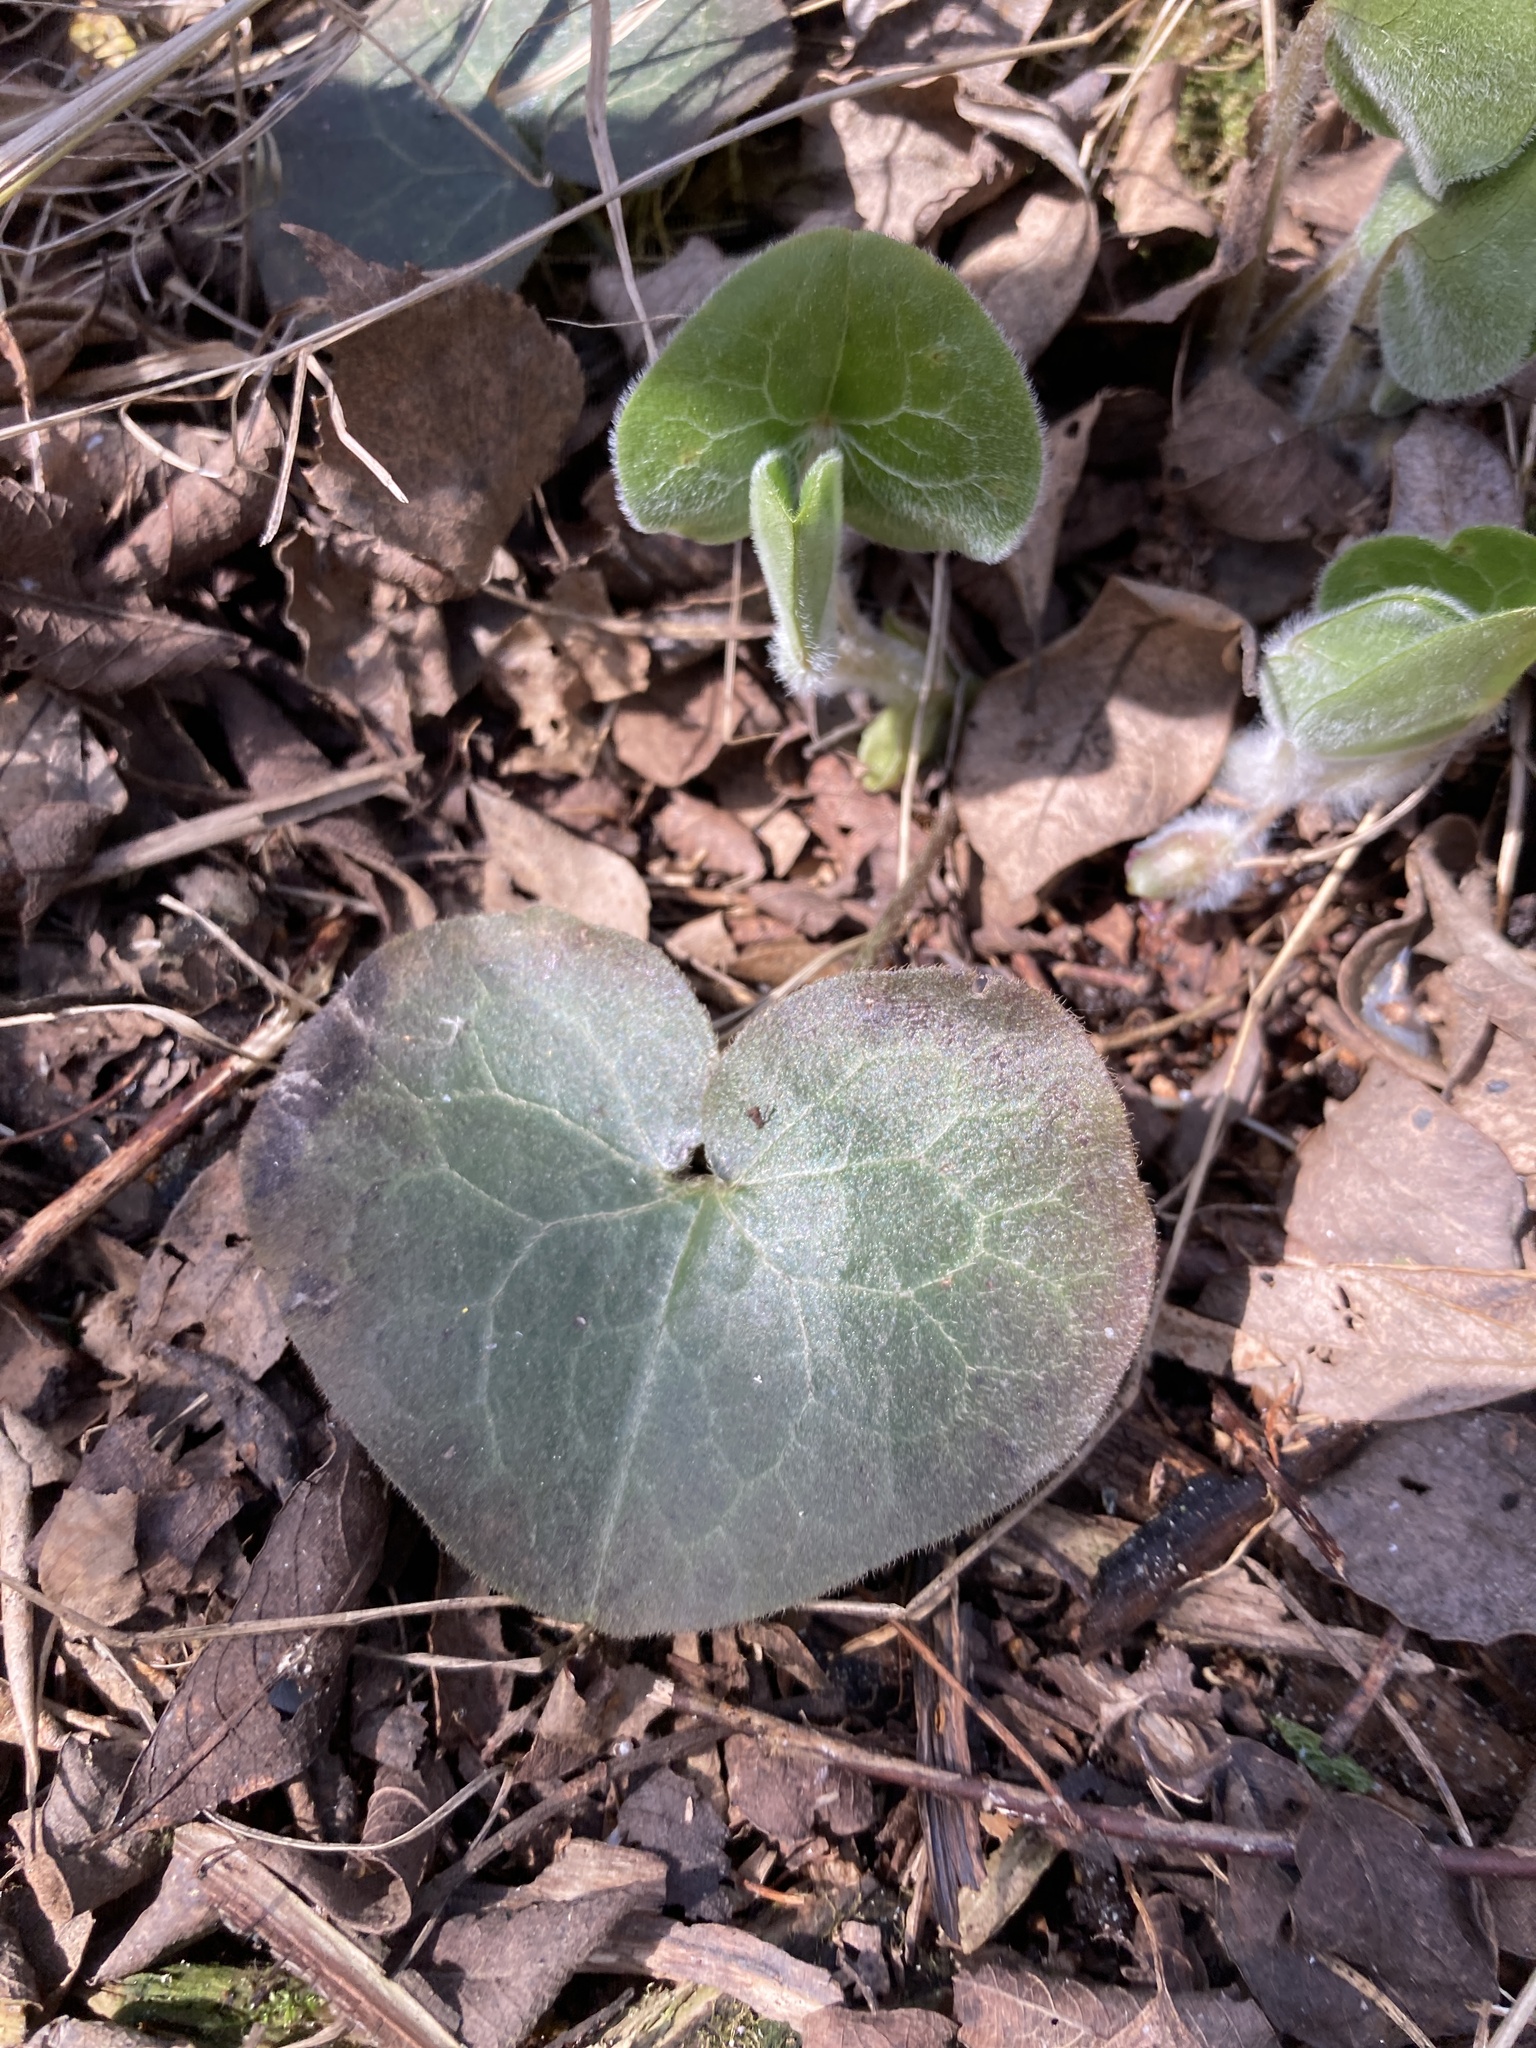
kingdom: Plantae
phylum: Tracheophyta
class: Magnoliopsida
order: Piperales
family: Aristolochiaceae
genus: Asarum
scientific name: Asarum europaeum
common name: Asarabacca
